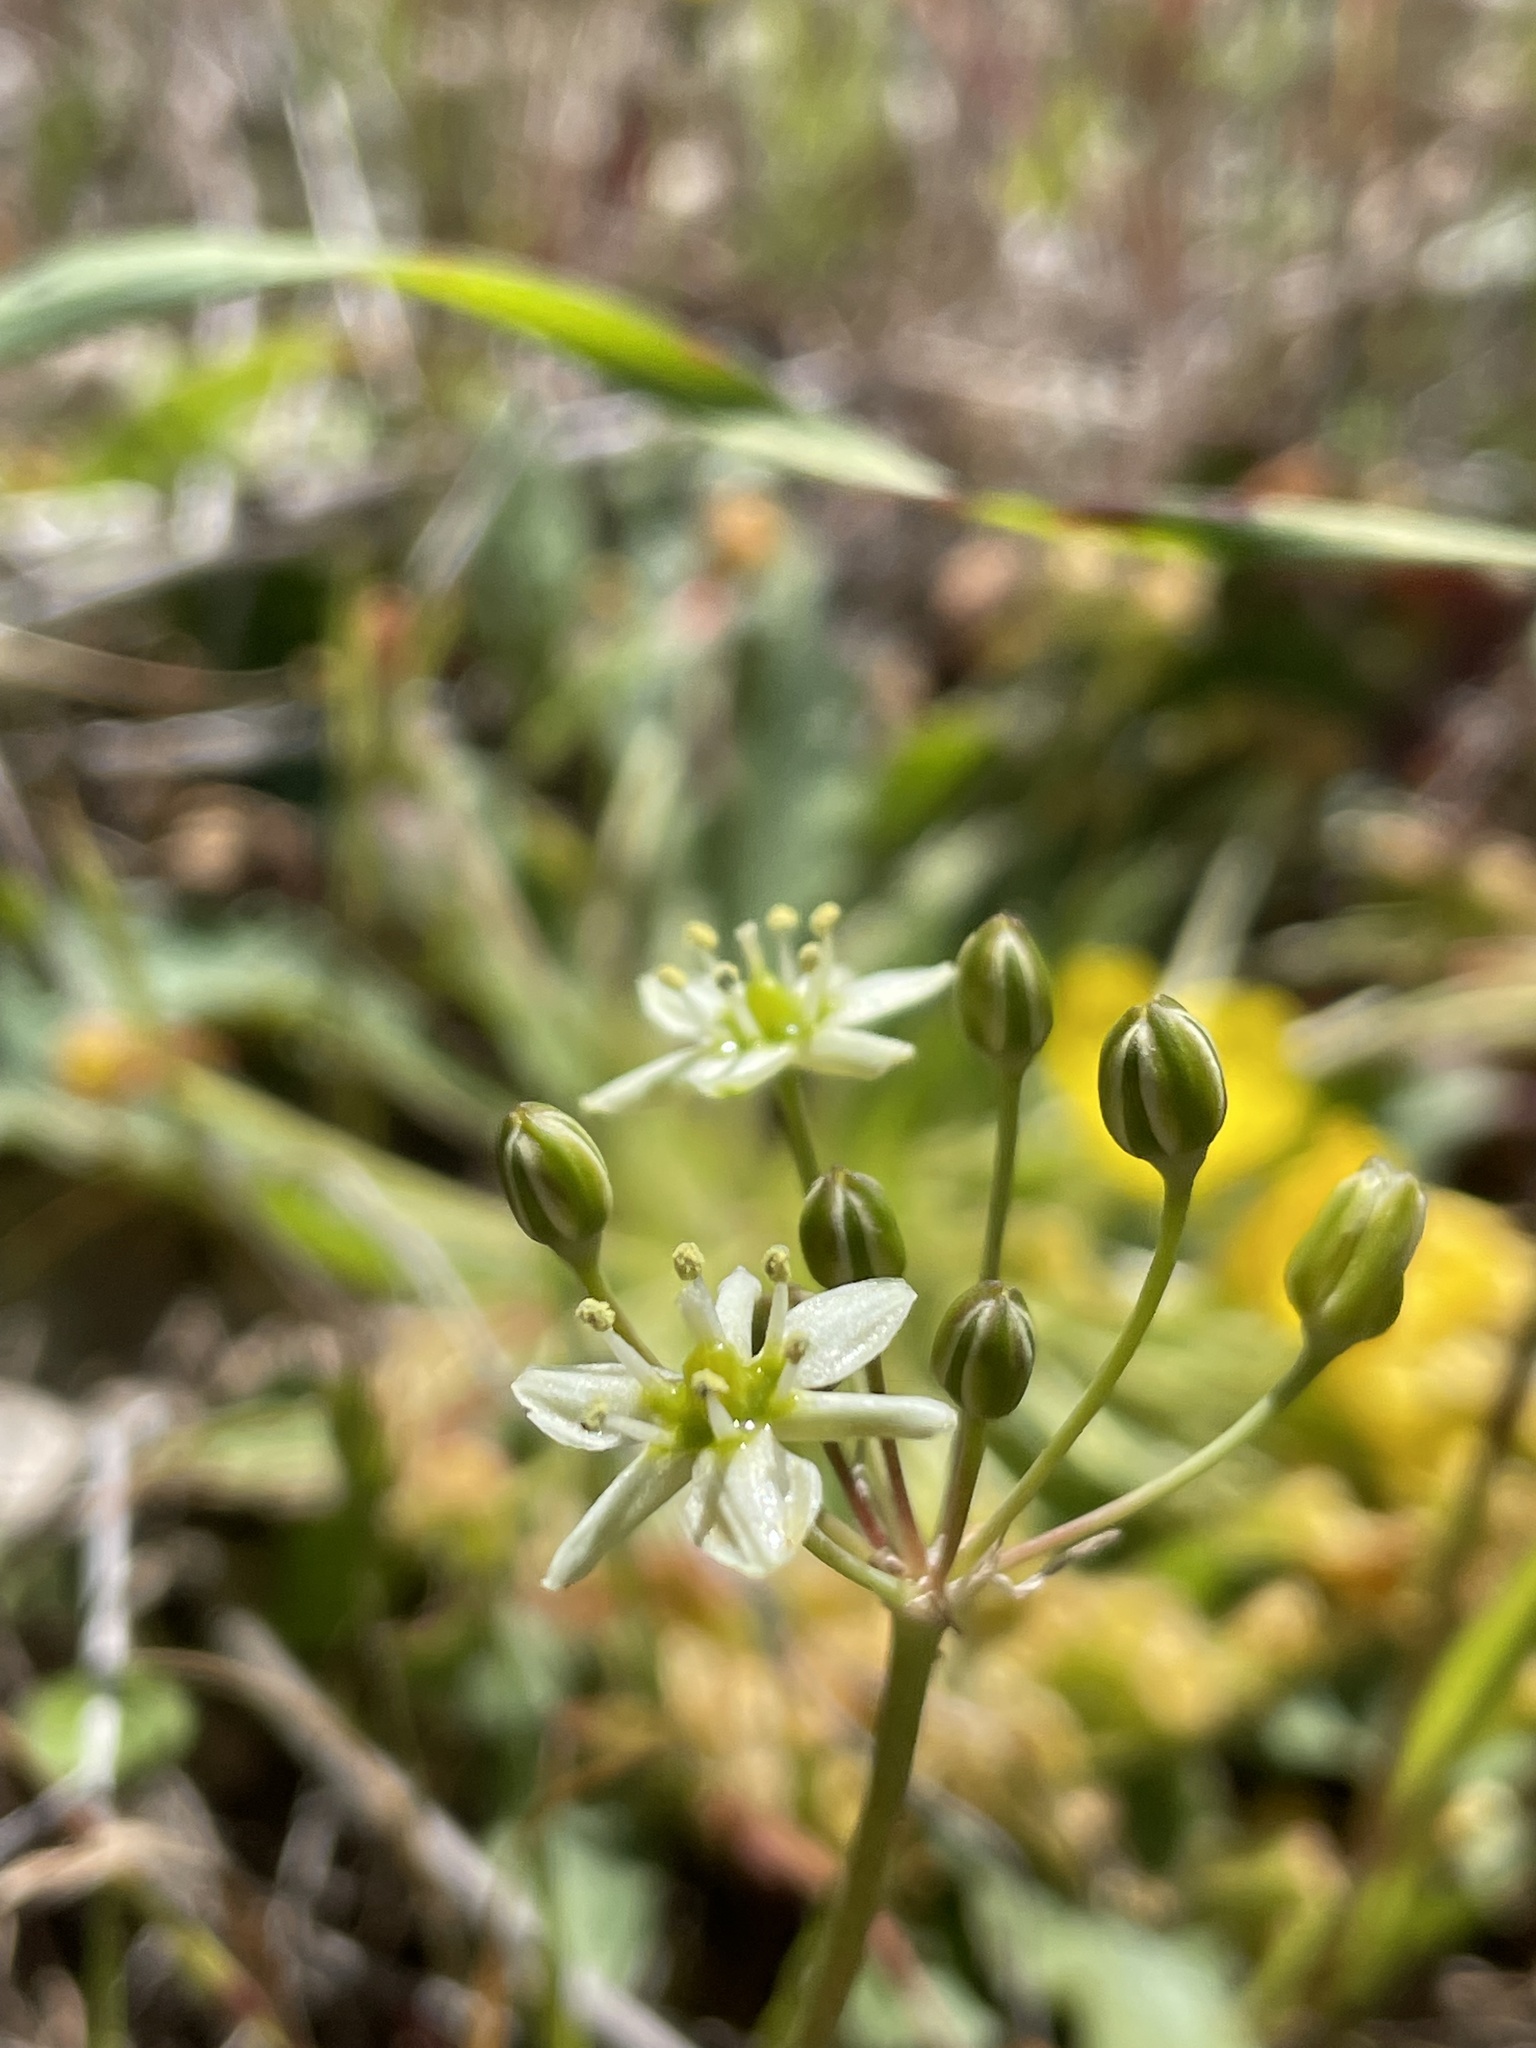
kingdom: Plantae
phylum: Tracheophyta
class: Liliopsida
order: Asparagales
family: Asparagaceae
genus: Muilla
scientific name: Muilla maritima
